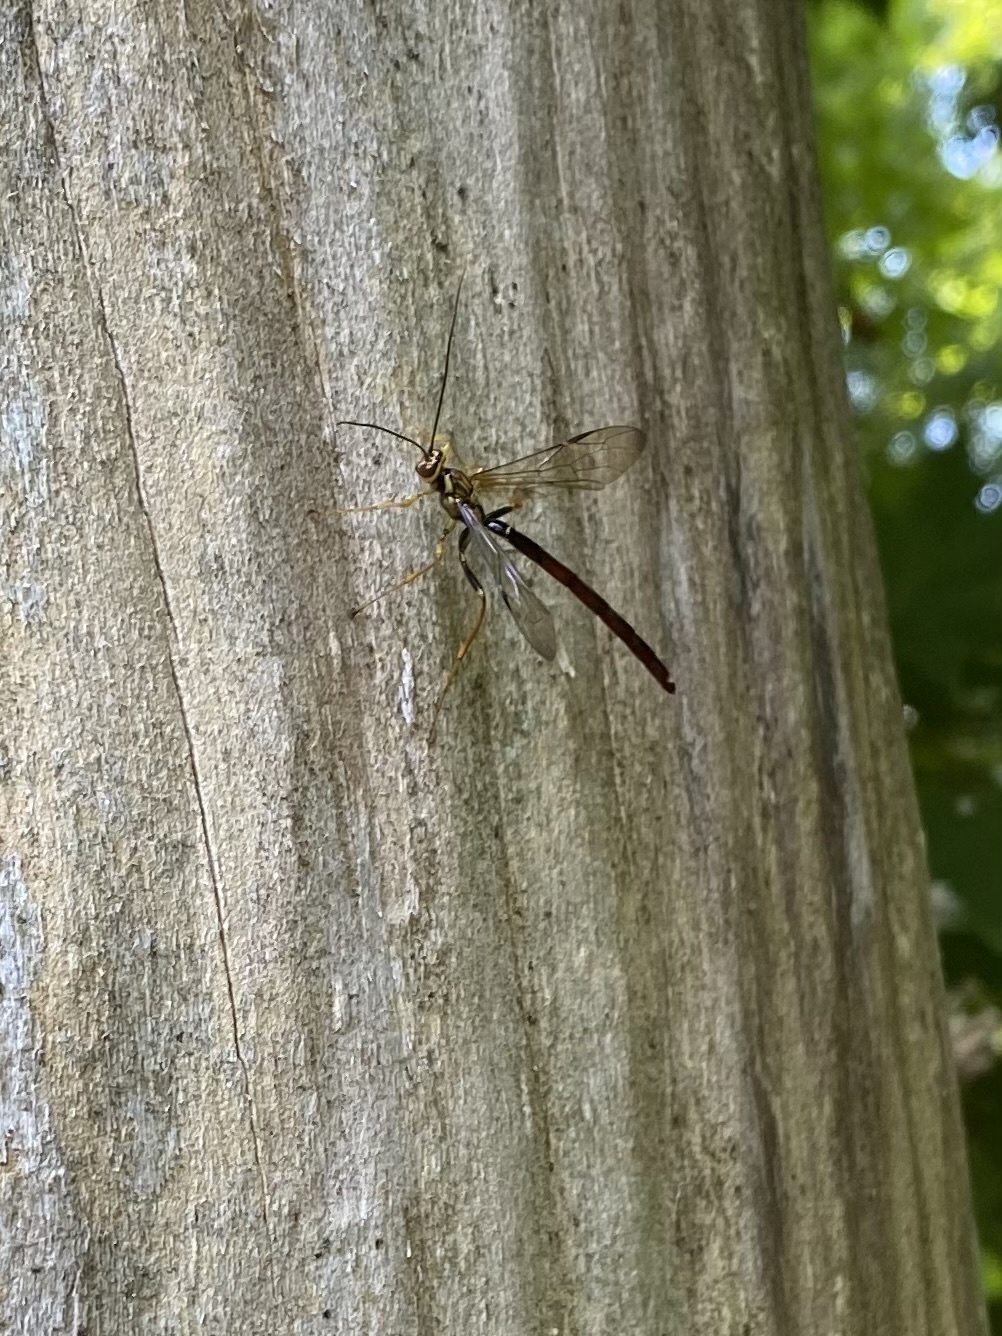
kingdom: Animalia
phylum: Arthropoda
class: Insecta
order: Hymenoptera
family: Ichneumonidae
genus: Megarhyssa
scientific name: Megarhyssa atrata
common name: Black giant ichneumonid wasp
